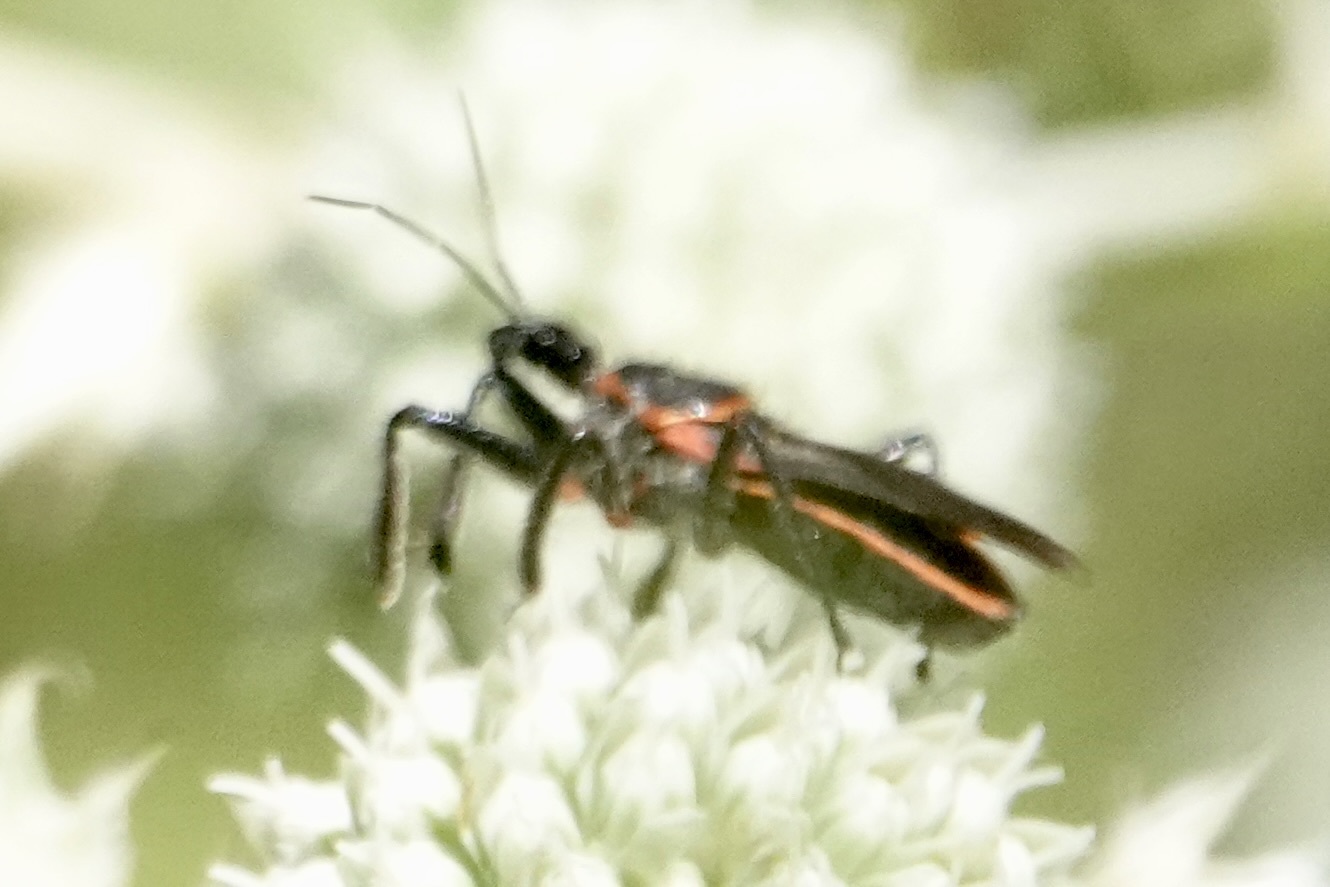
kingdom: Animalia
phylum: Arthropoda
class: Insecta
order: Hemiptera
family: Reduviidae
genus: Apiomerus
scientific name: Apiomerus crassipes
